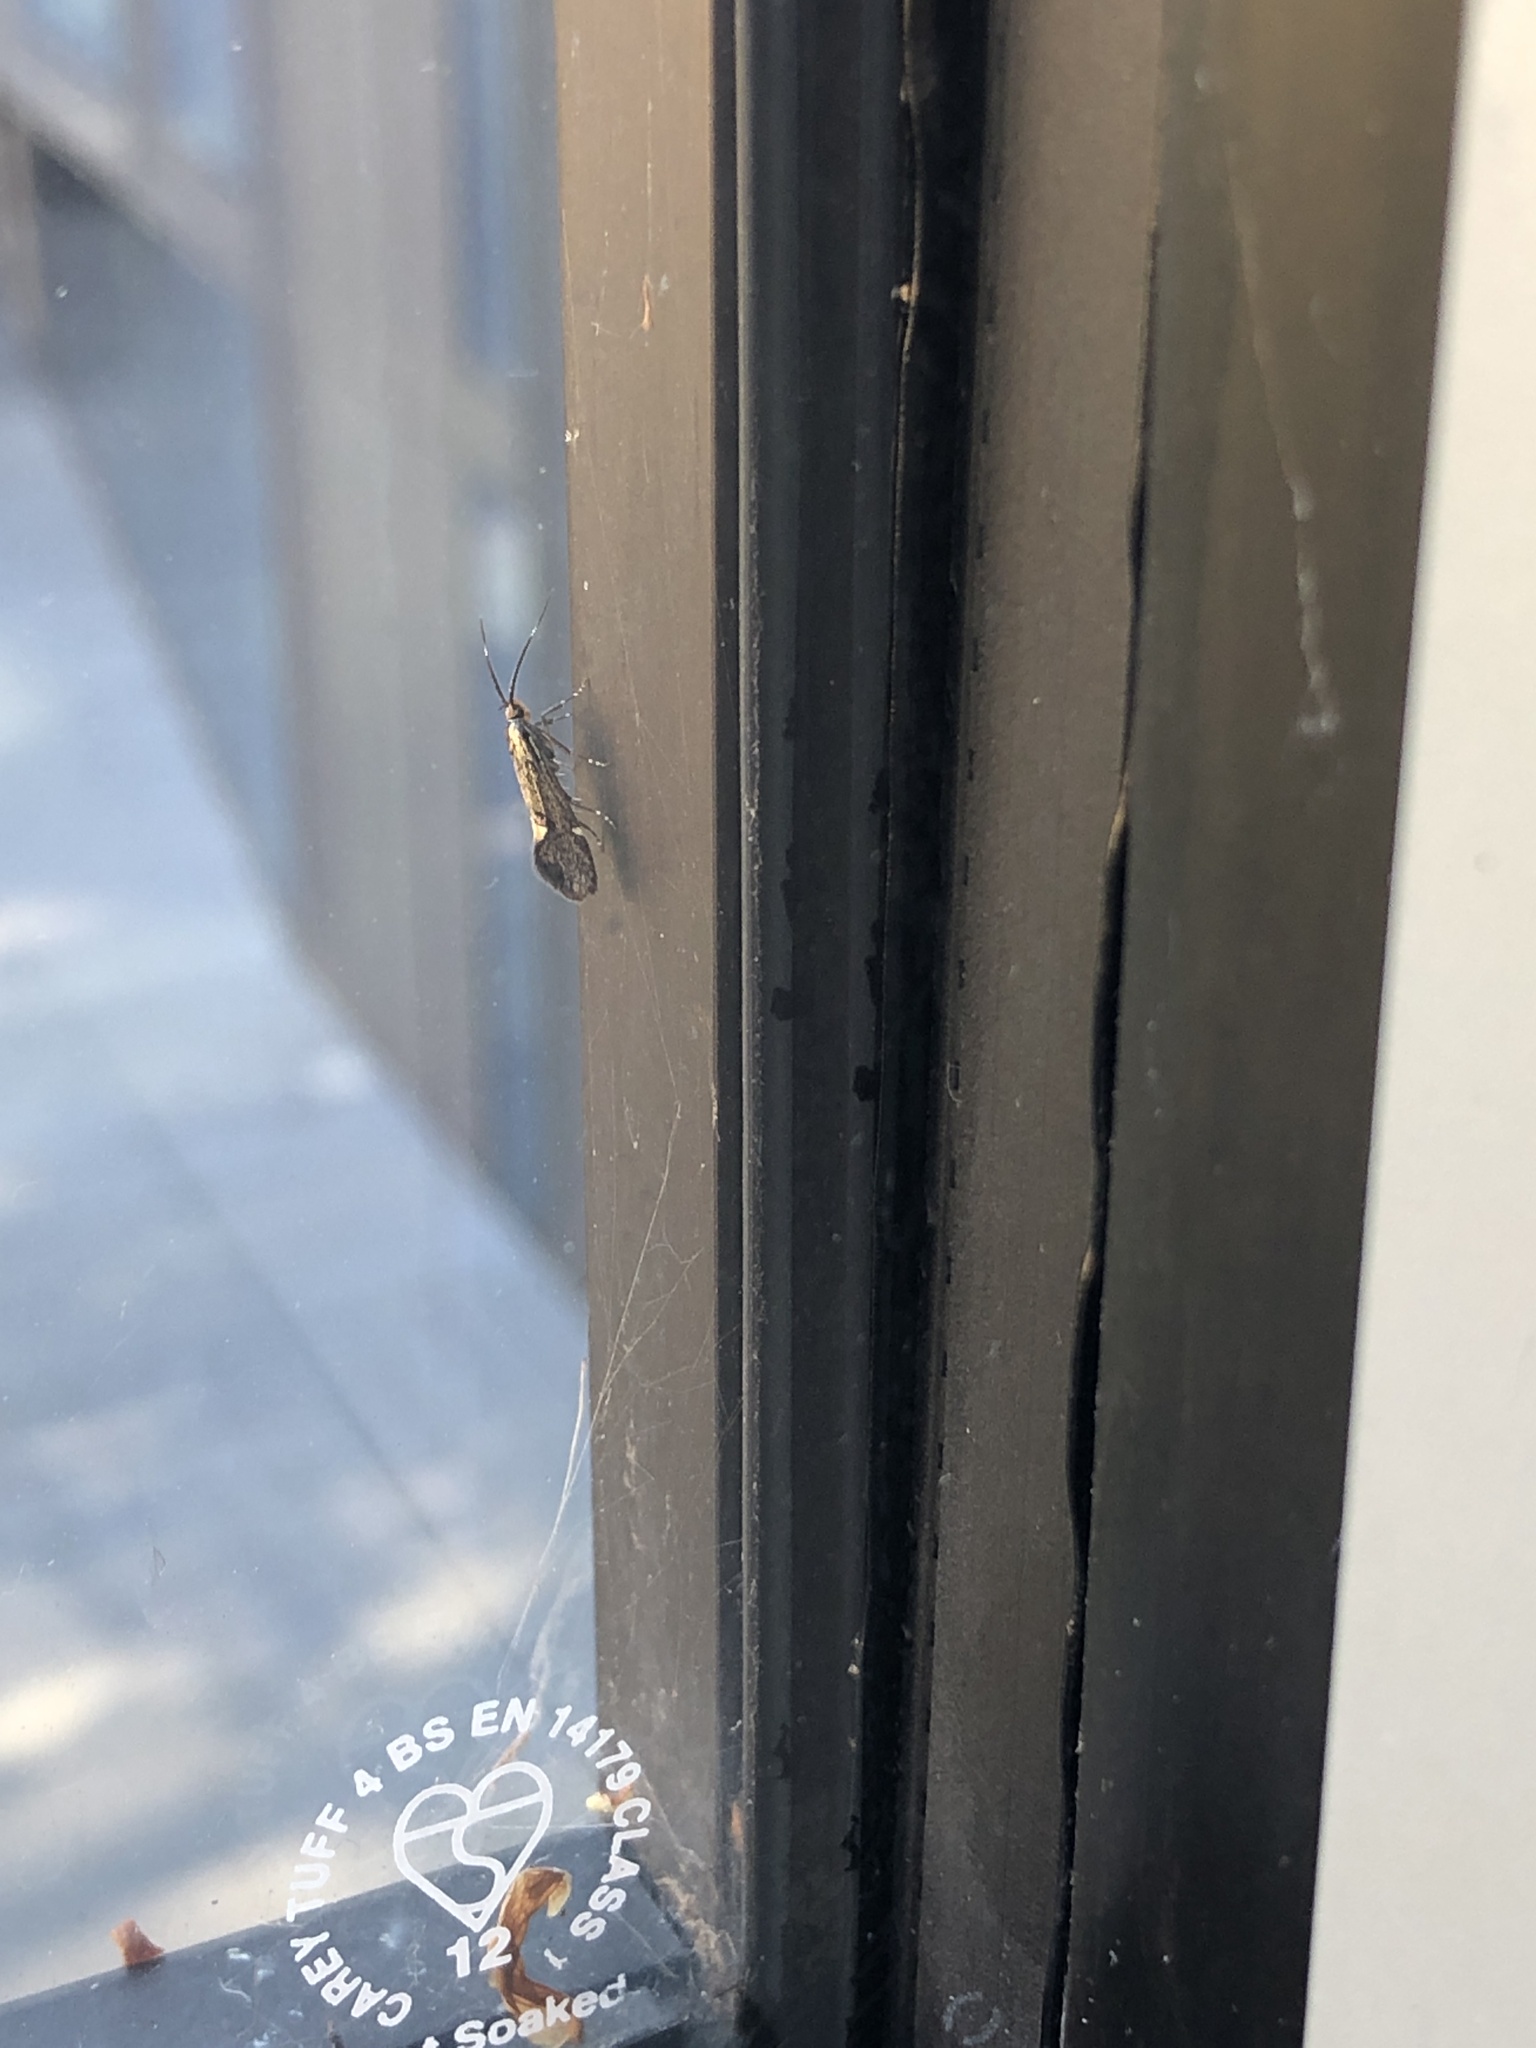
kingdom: Animalia
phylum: Arthropoda
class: Insecta
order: Lepidoptera
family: Oecophoridae
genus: Dafa
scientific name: Dafa Esperia sulphurella
